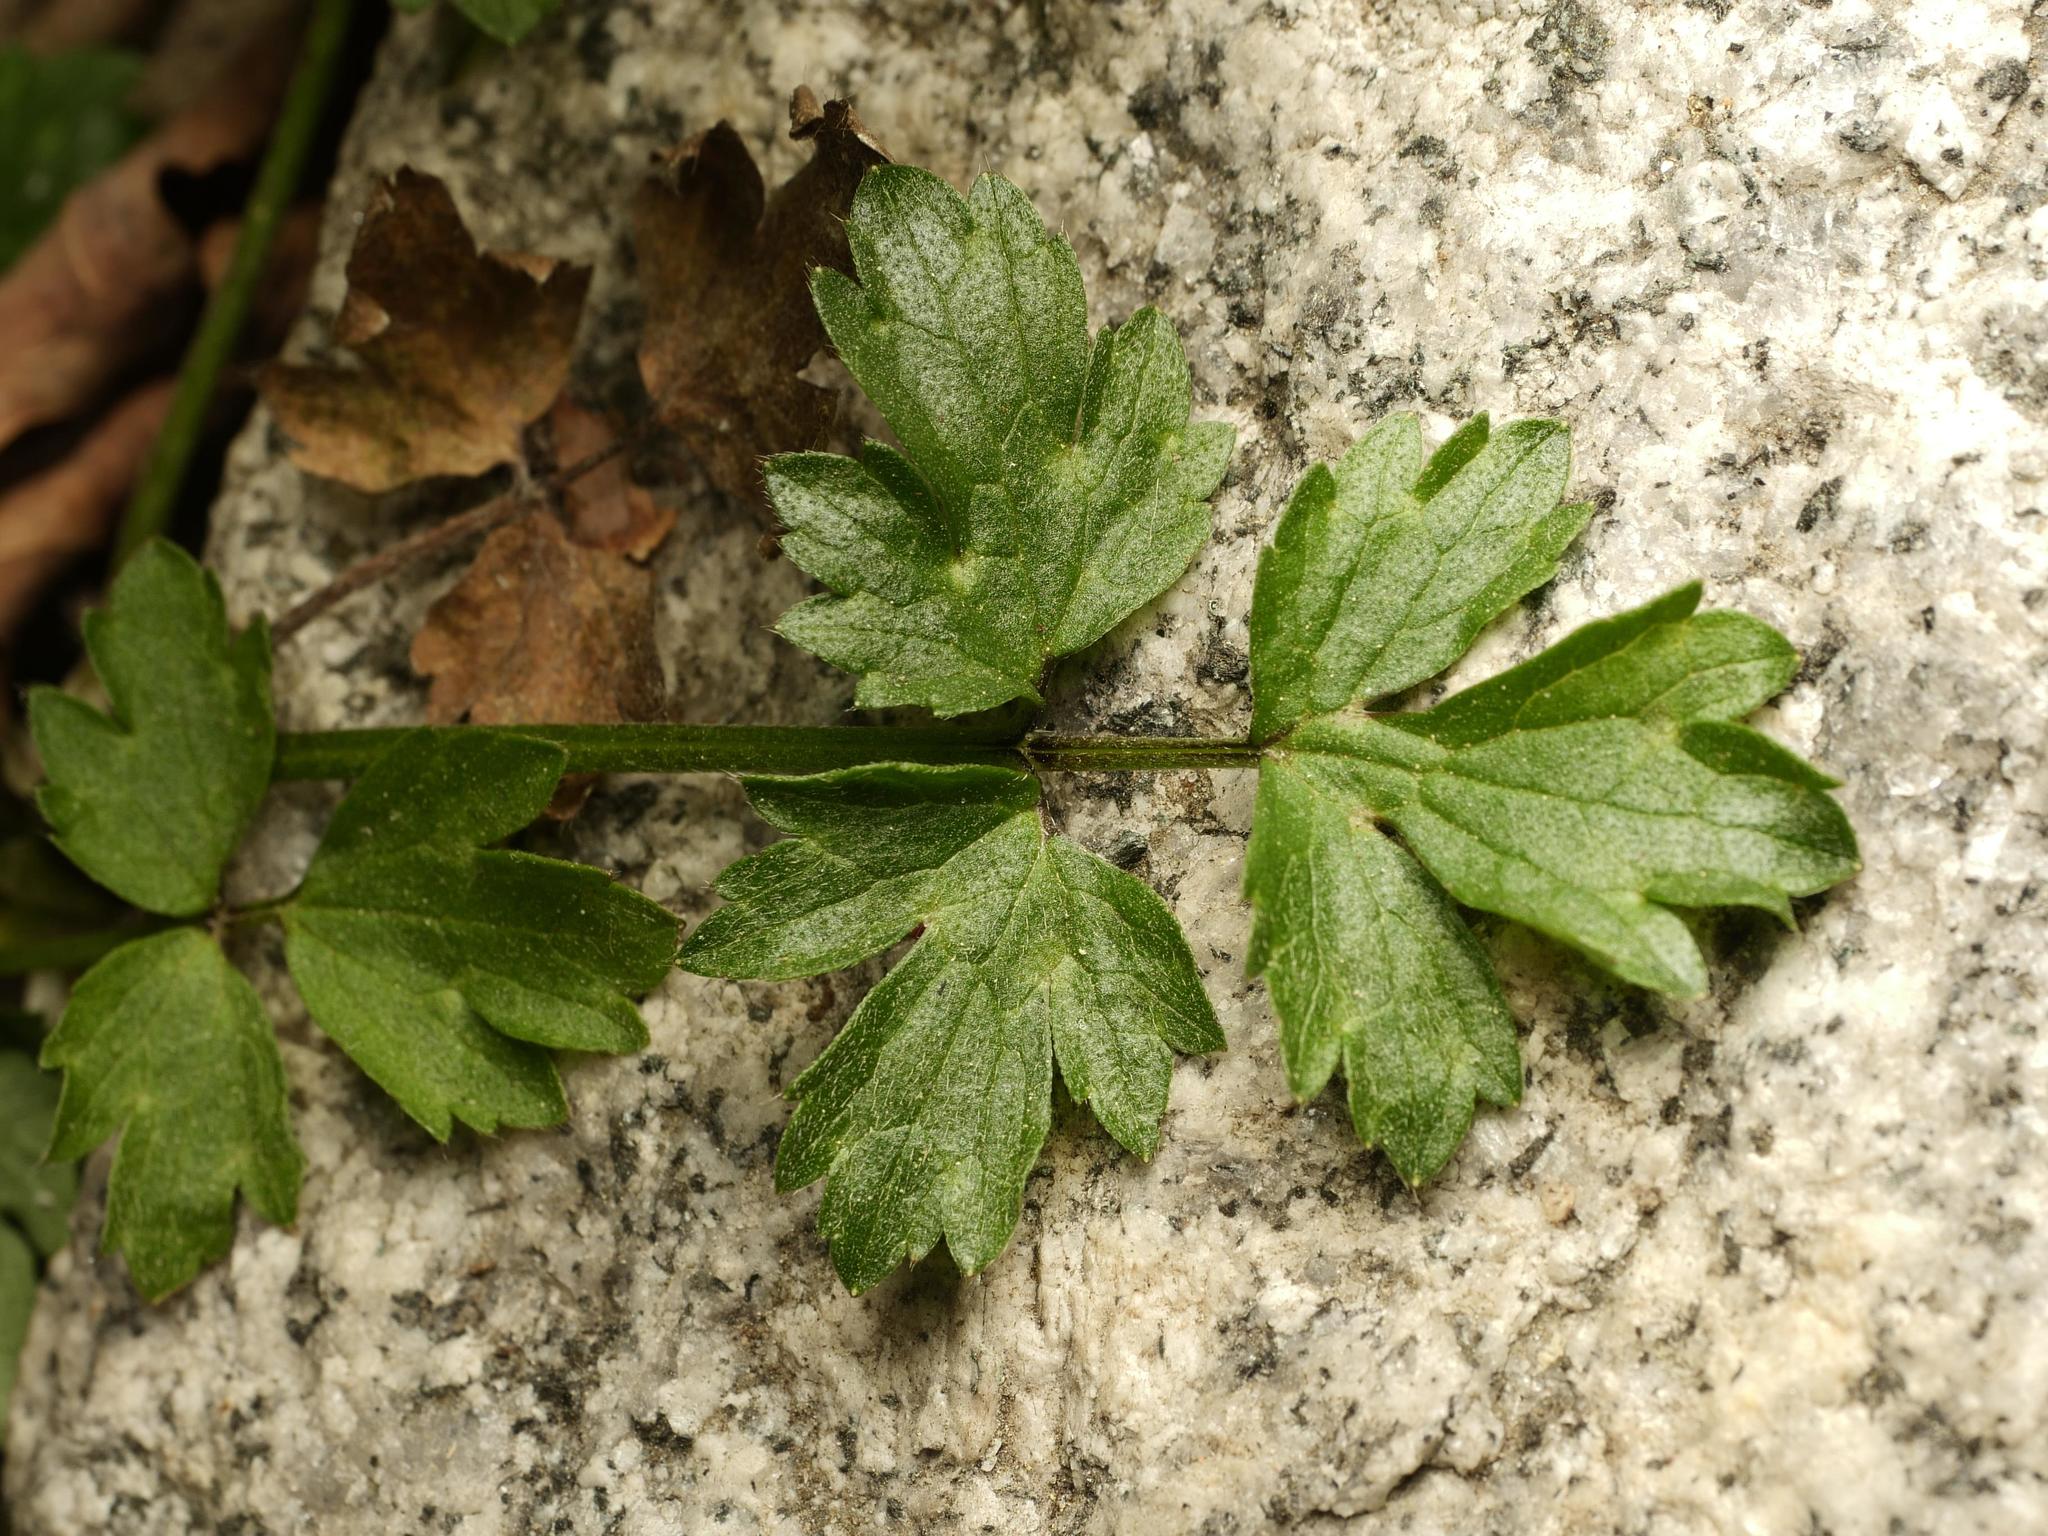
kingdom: Plantae
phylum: Tracheophyta
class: Magnoliopsida
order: Ranunculales
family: Ranunculaceae
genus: Ranunculus
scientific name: Ranunculus repens
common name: Creeping buttercup
